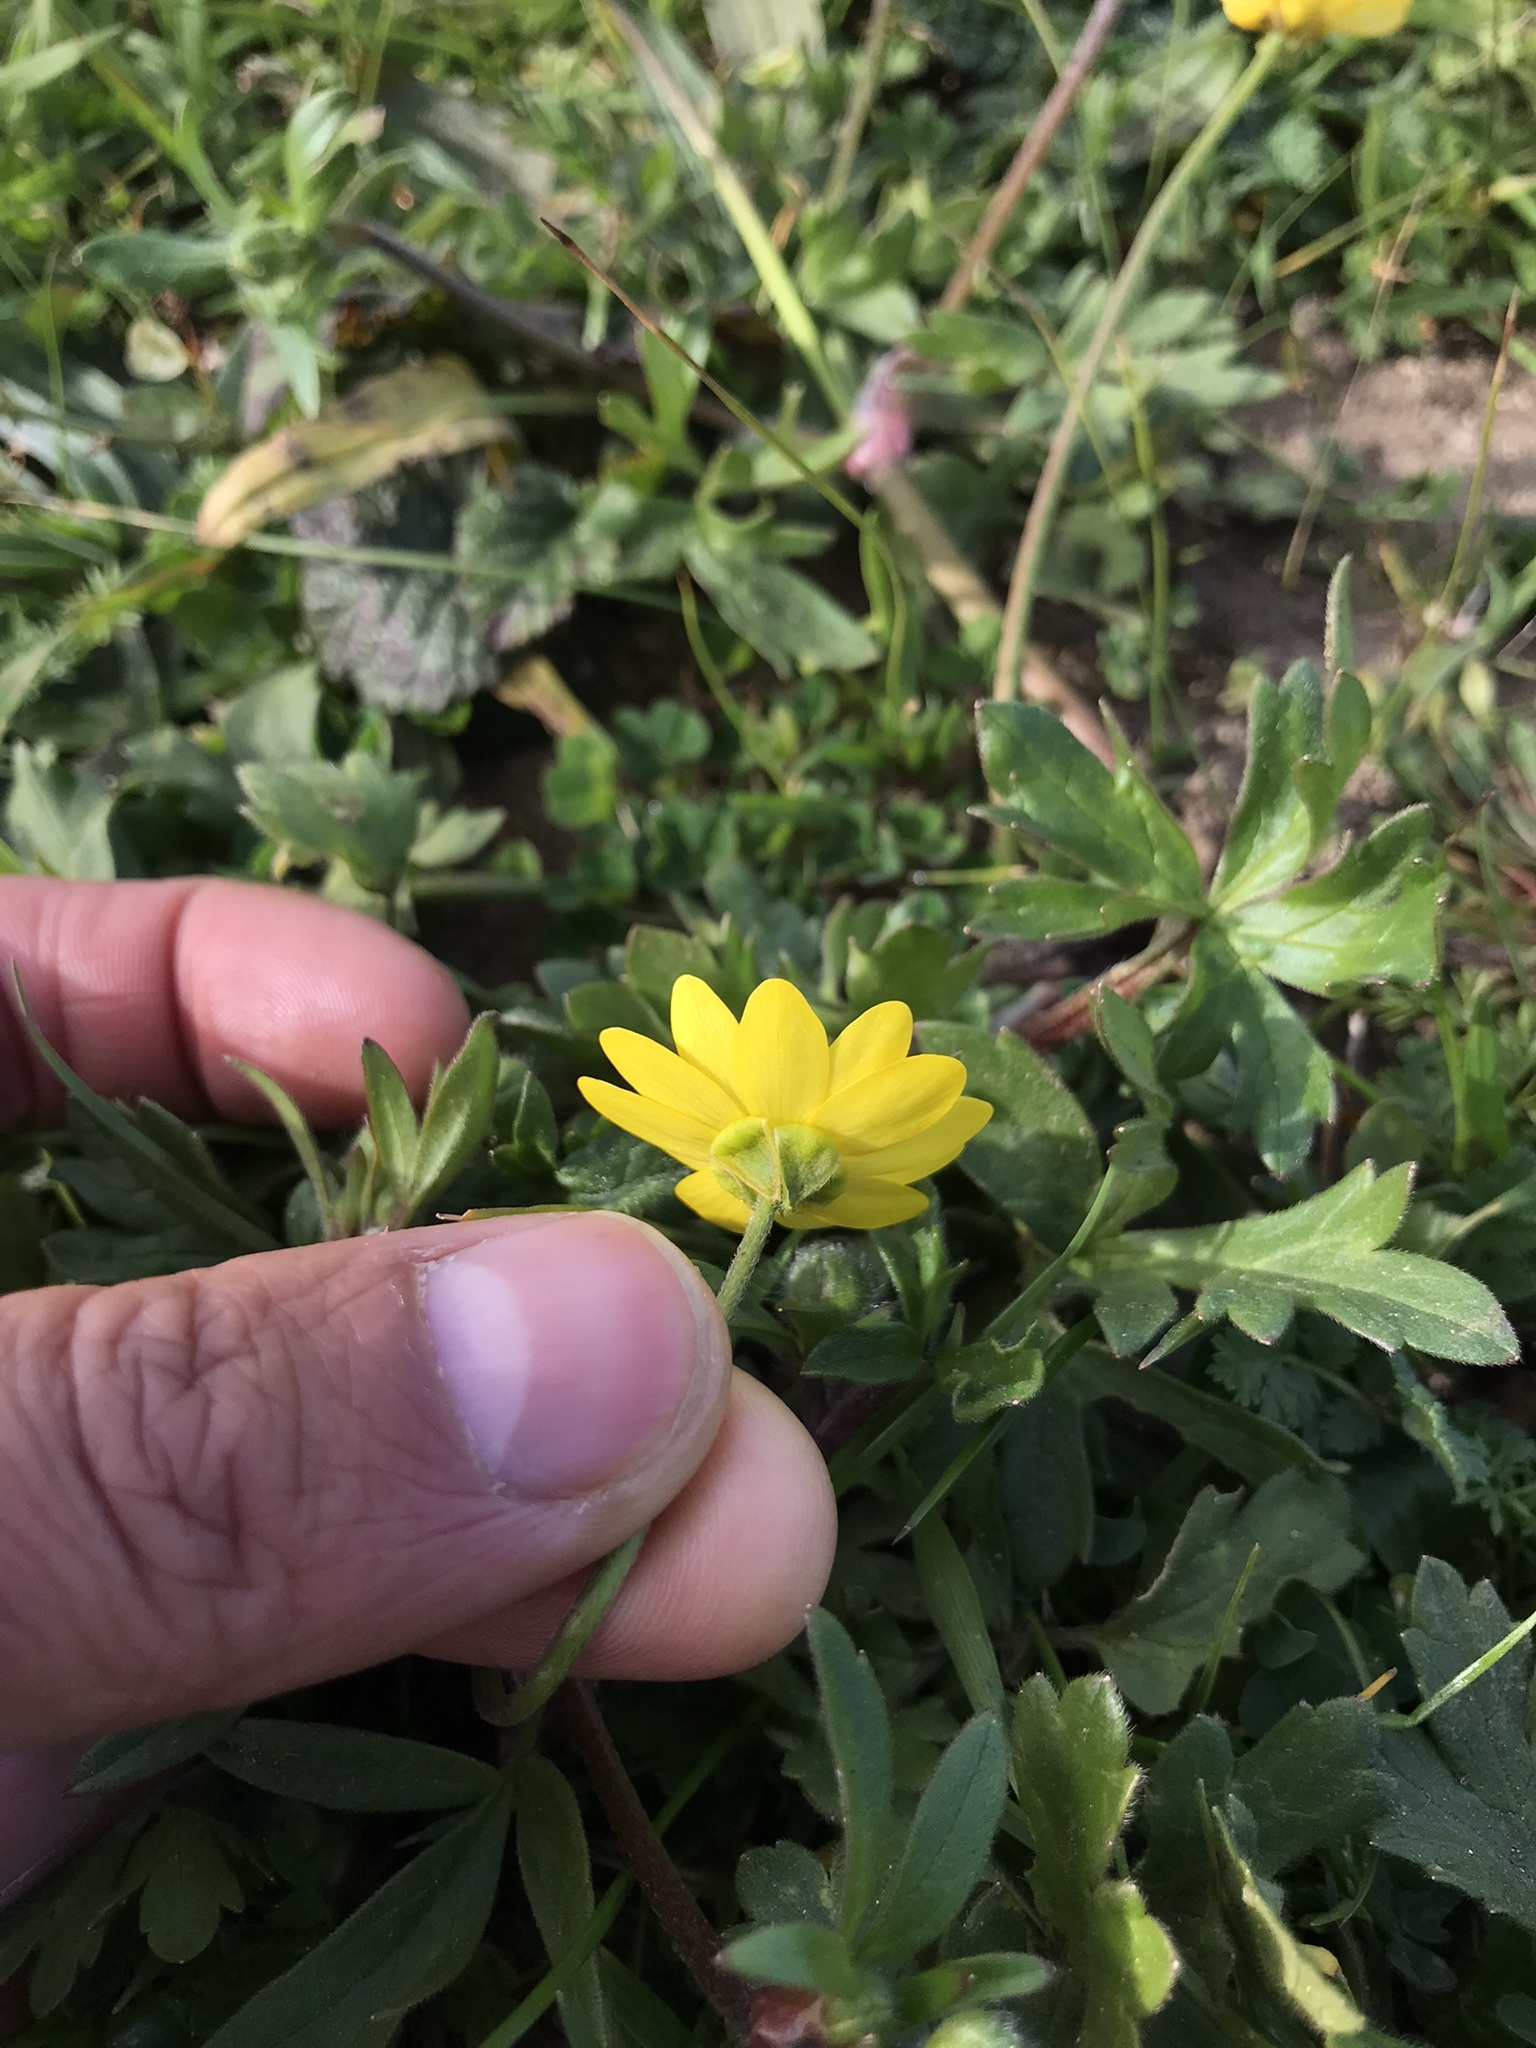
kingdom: Plantae
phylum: Tracheophyta
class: Magnoliopsida
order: Ranunculales
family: Ranunculaceae
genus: Ranunculus
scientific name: Ranunculus californicus
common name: California buttercup
